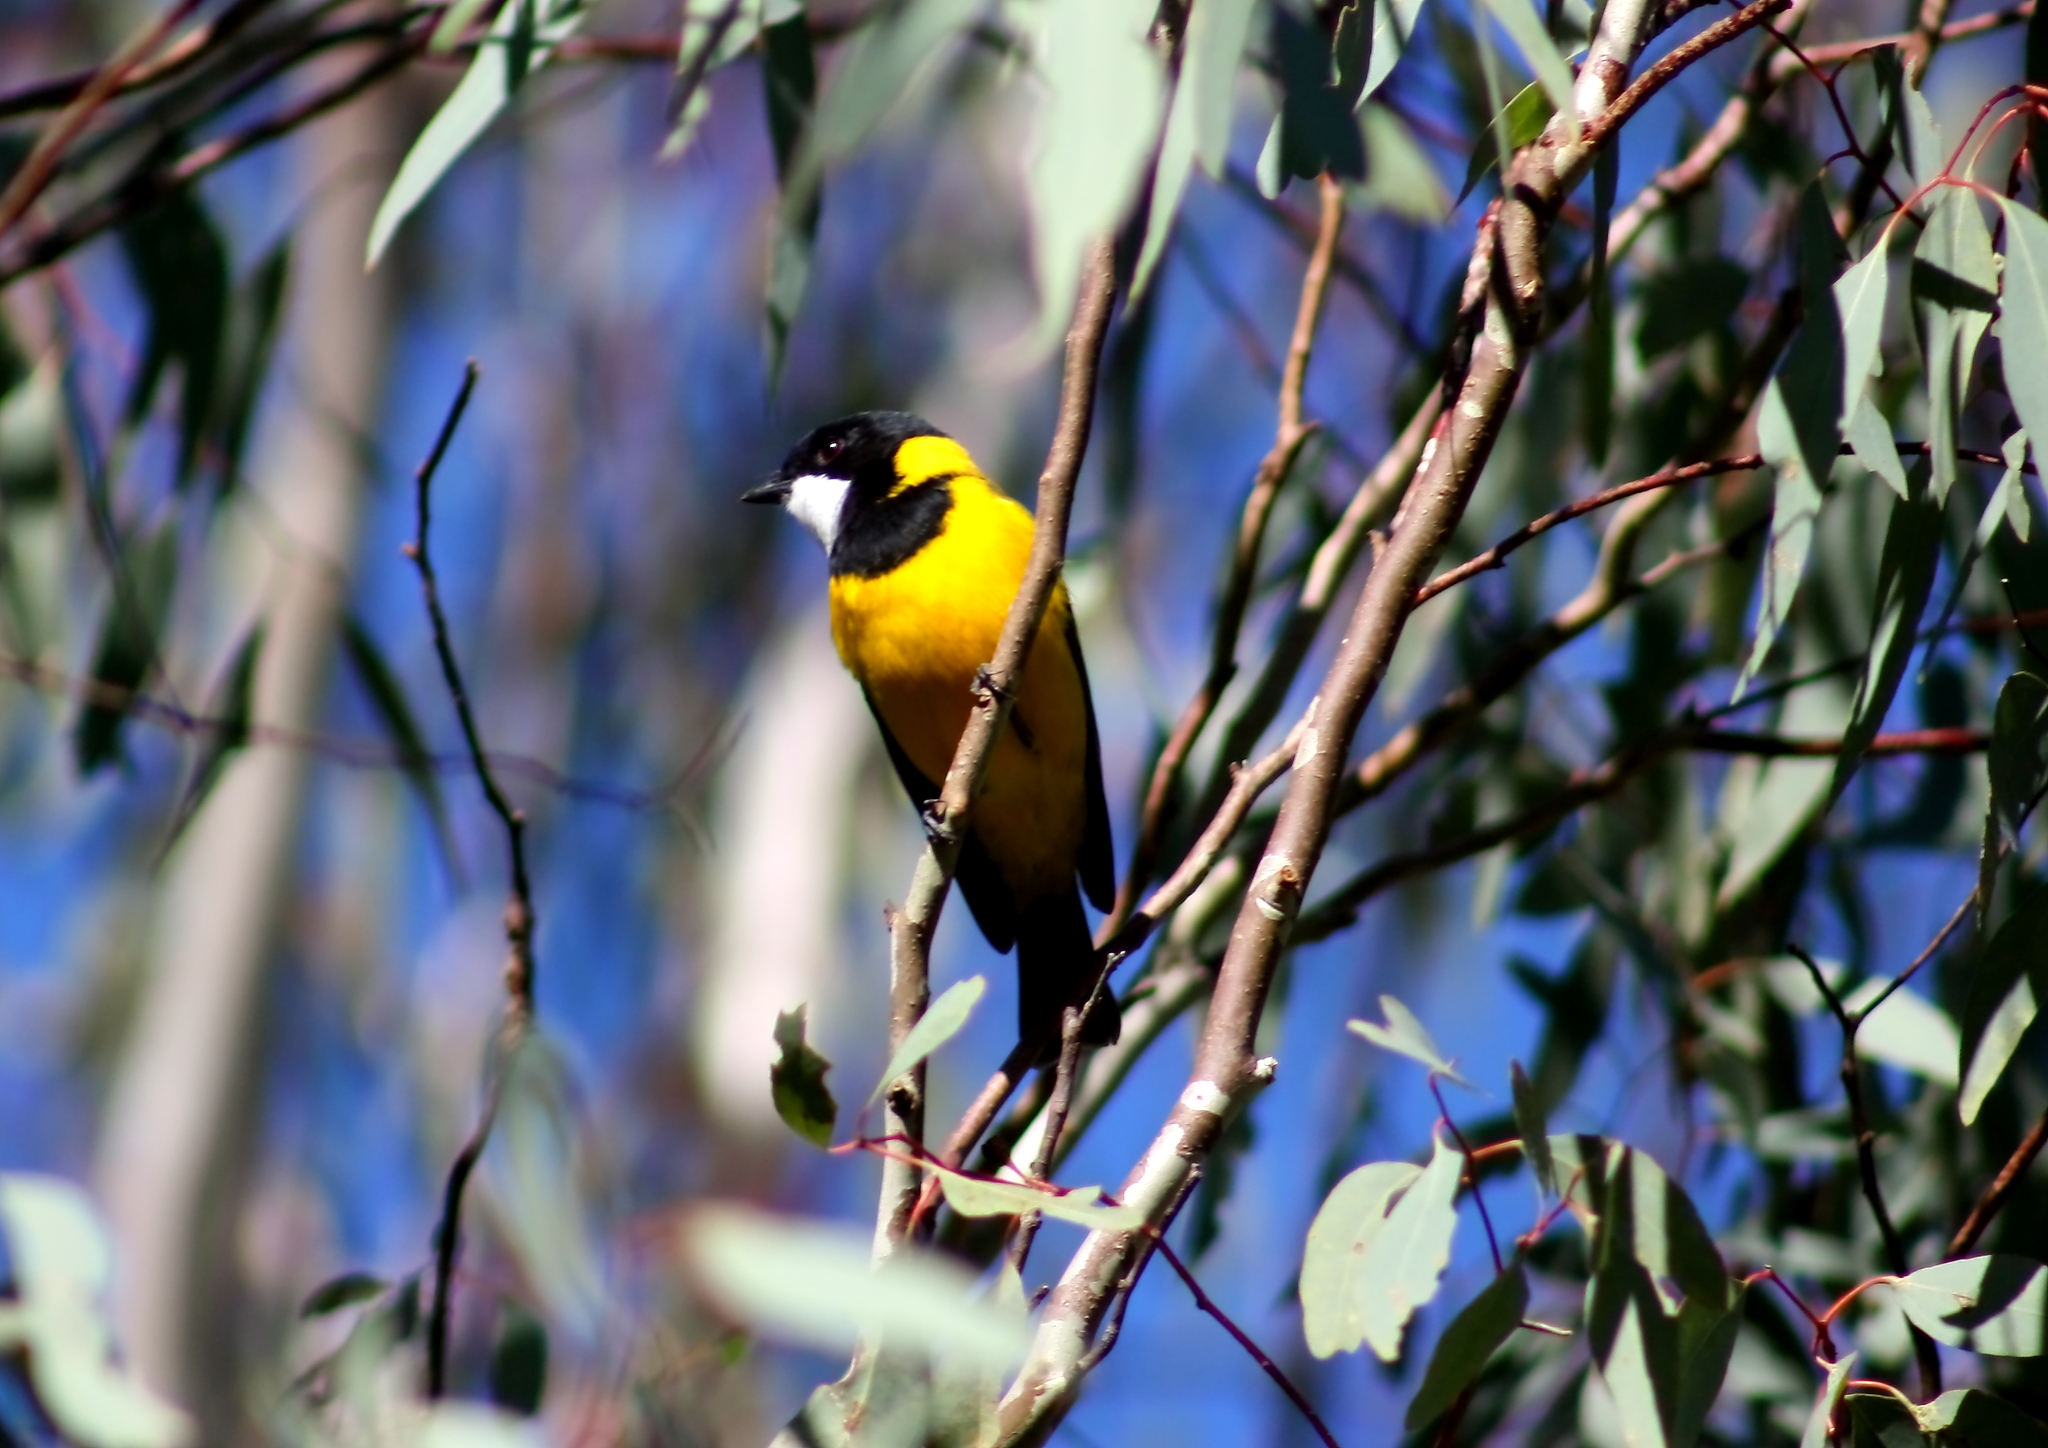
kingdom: Animalia
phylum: Chordata
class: Aves
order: Passeriformes
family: Pachycephalidae
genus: Pachycephala
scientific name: Pachycephala pectoralis
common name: Australian golden whistler
